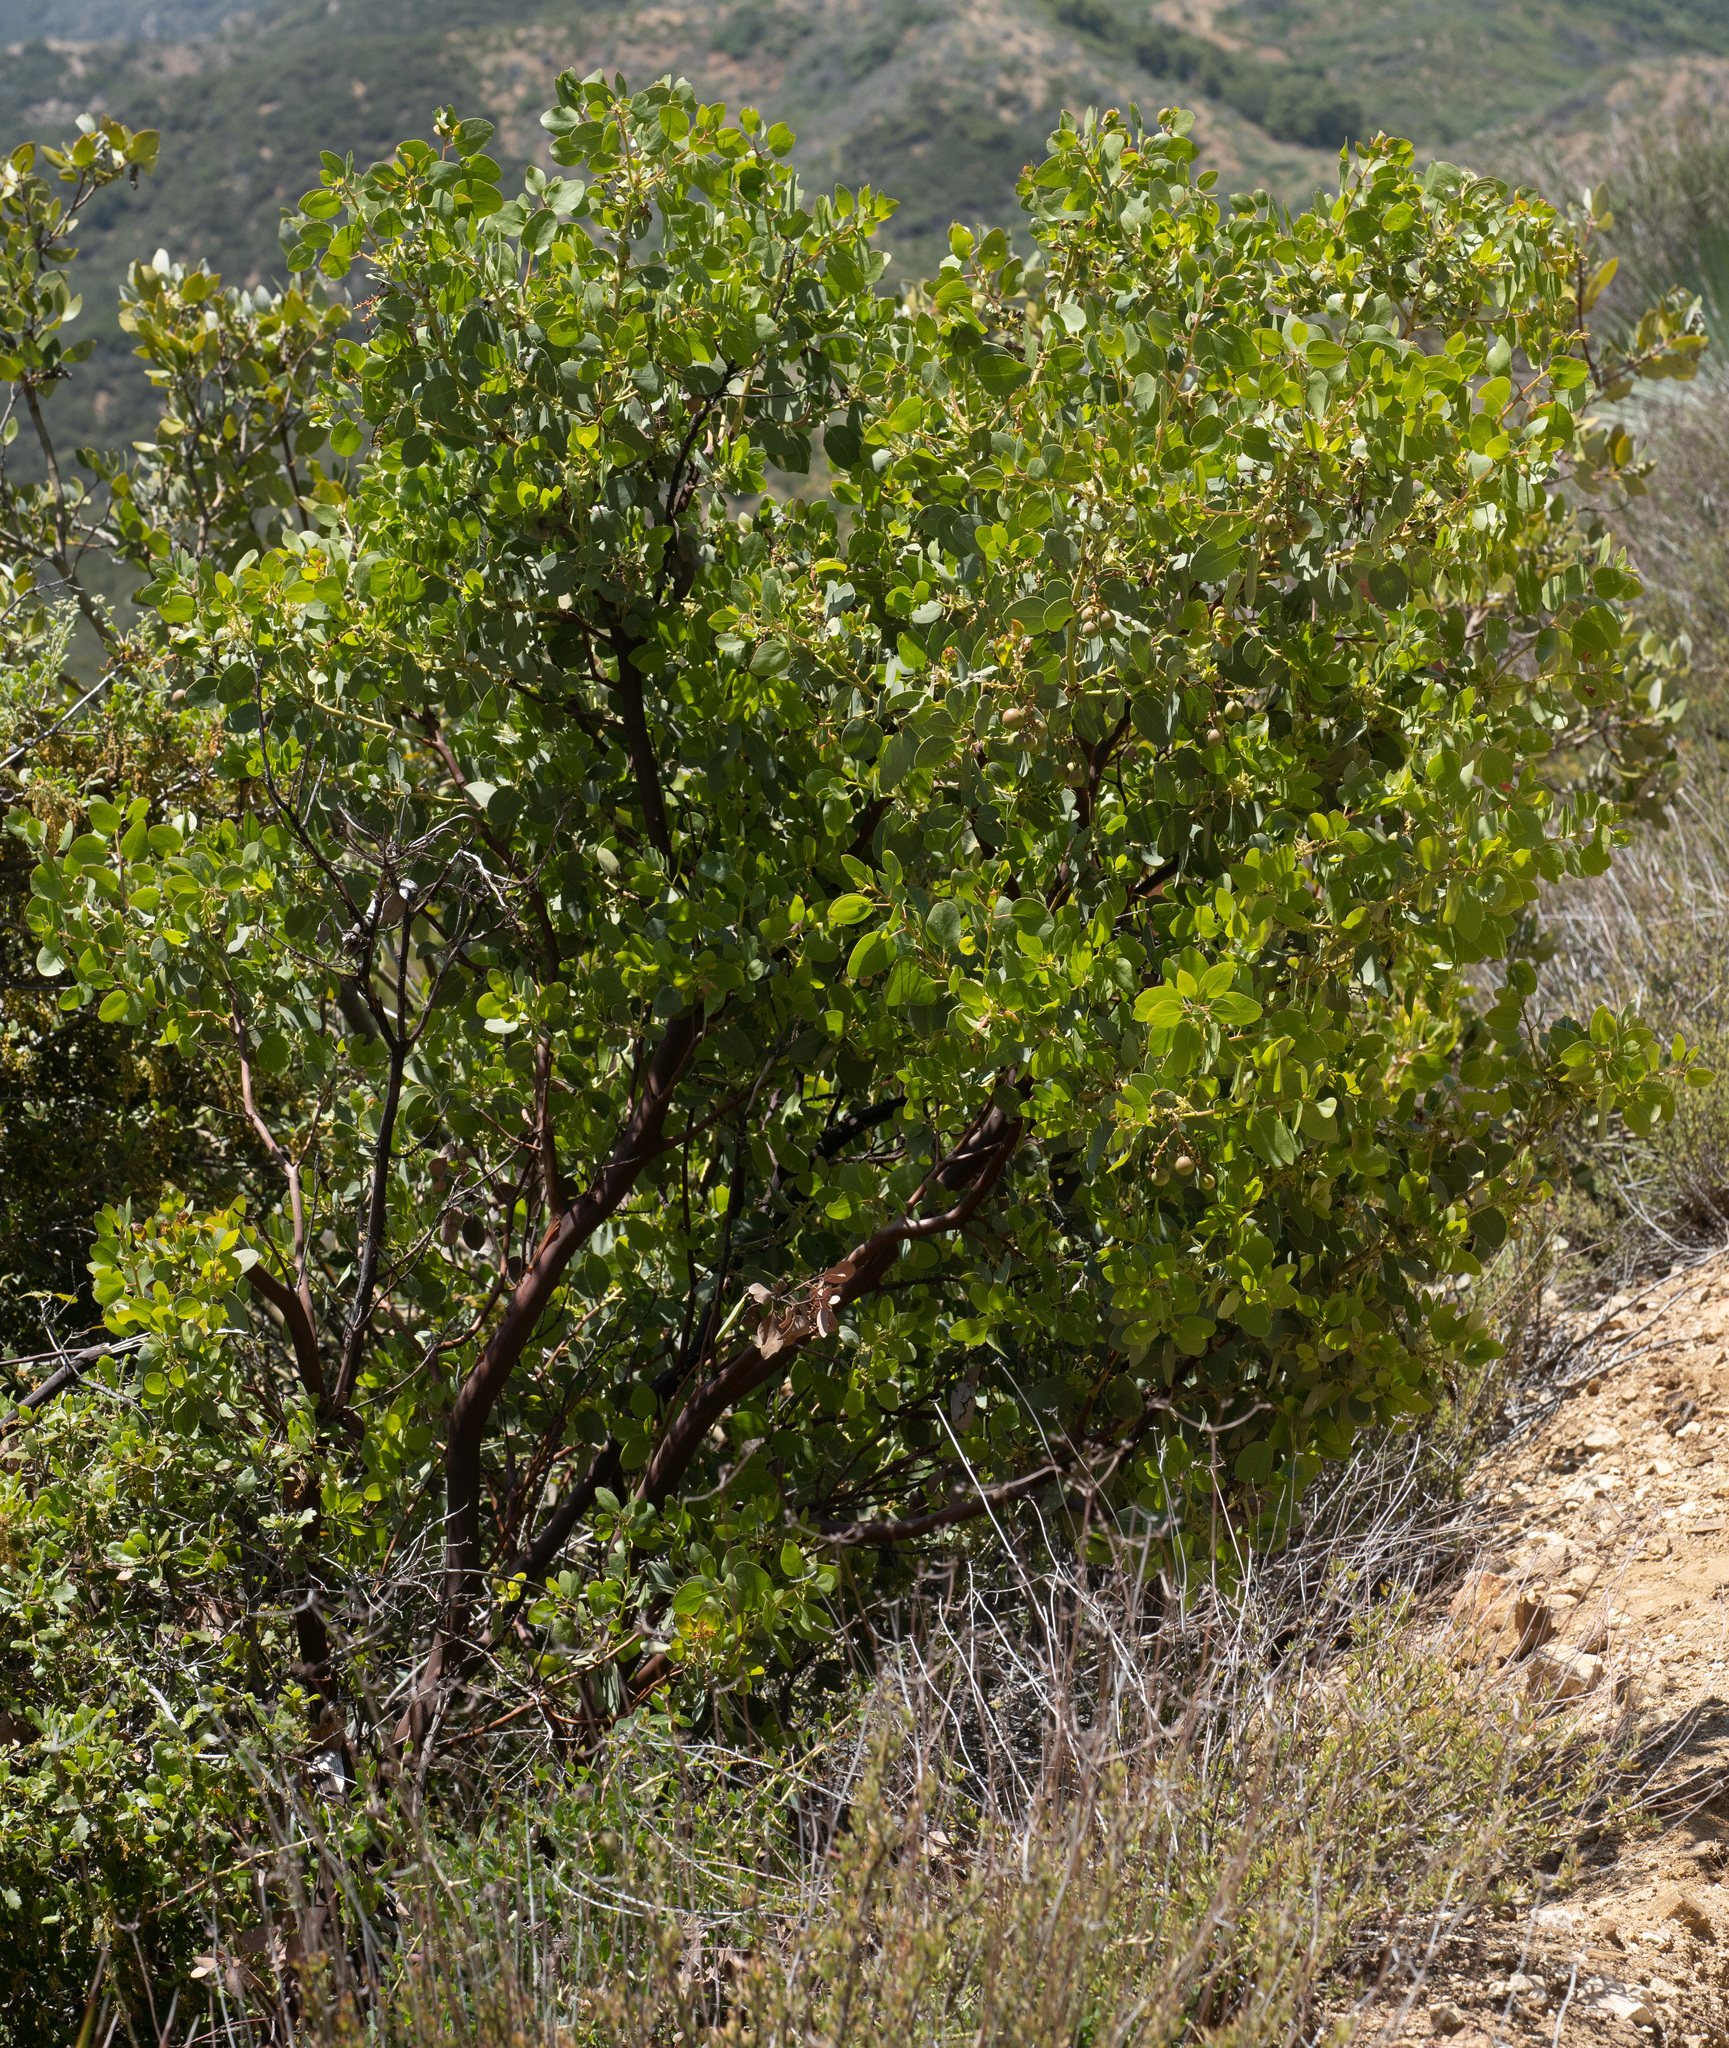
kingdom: Plantae
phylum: Tracheophyta
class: Magnoliopsida
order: Ericales
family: Ericaceae
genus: Arctostaphylos
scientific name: Arctostaphylos glauca
